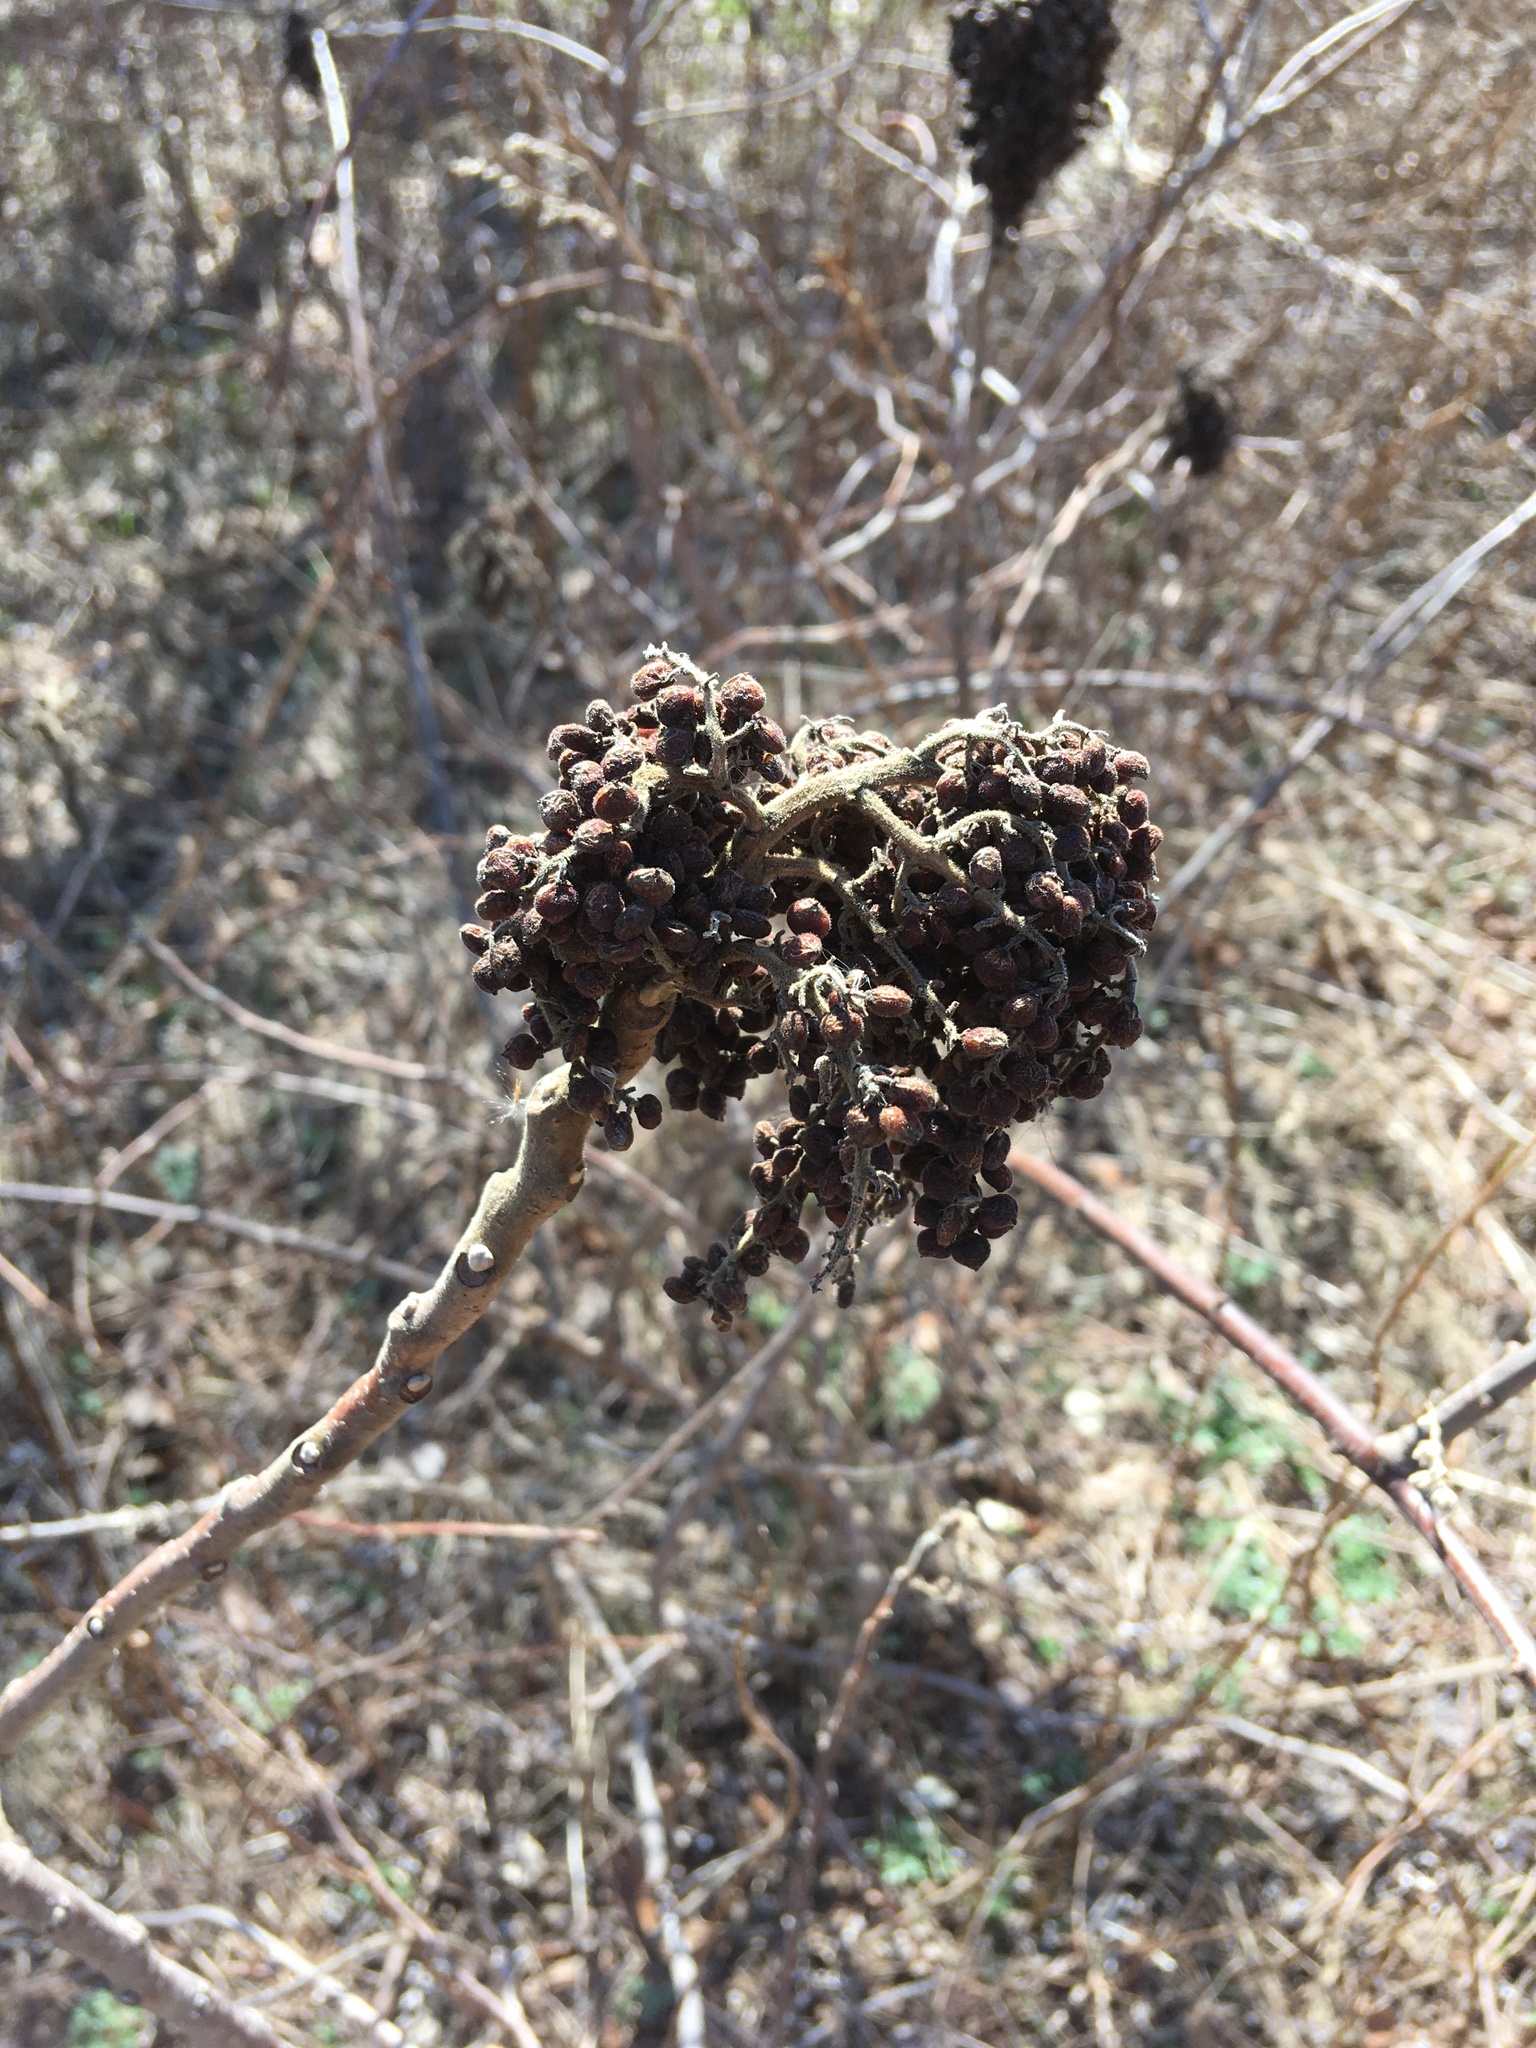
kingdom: Plantae
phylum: Tracheophyta
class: Magnoliopsida
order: Sapindales
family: Anacardiaceae
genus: Rhus
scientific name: Rhus copallina
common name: Shining sumac
